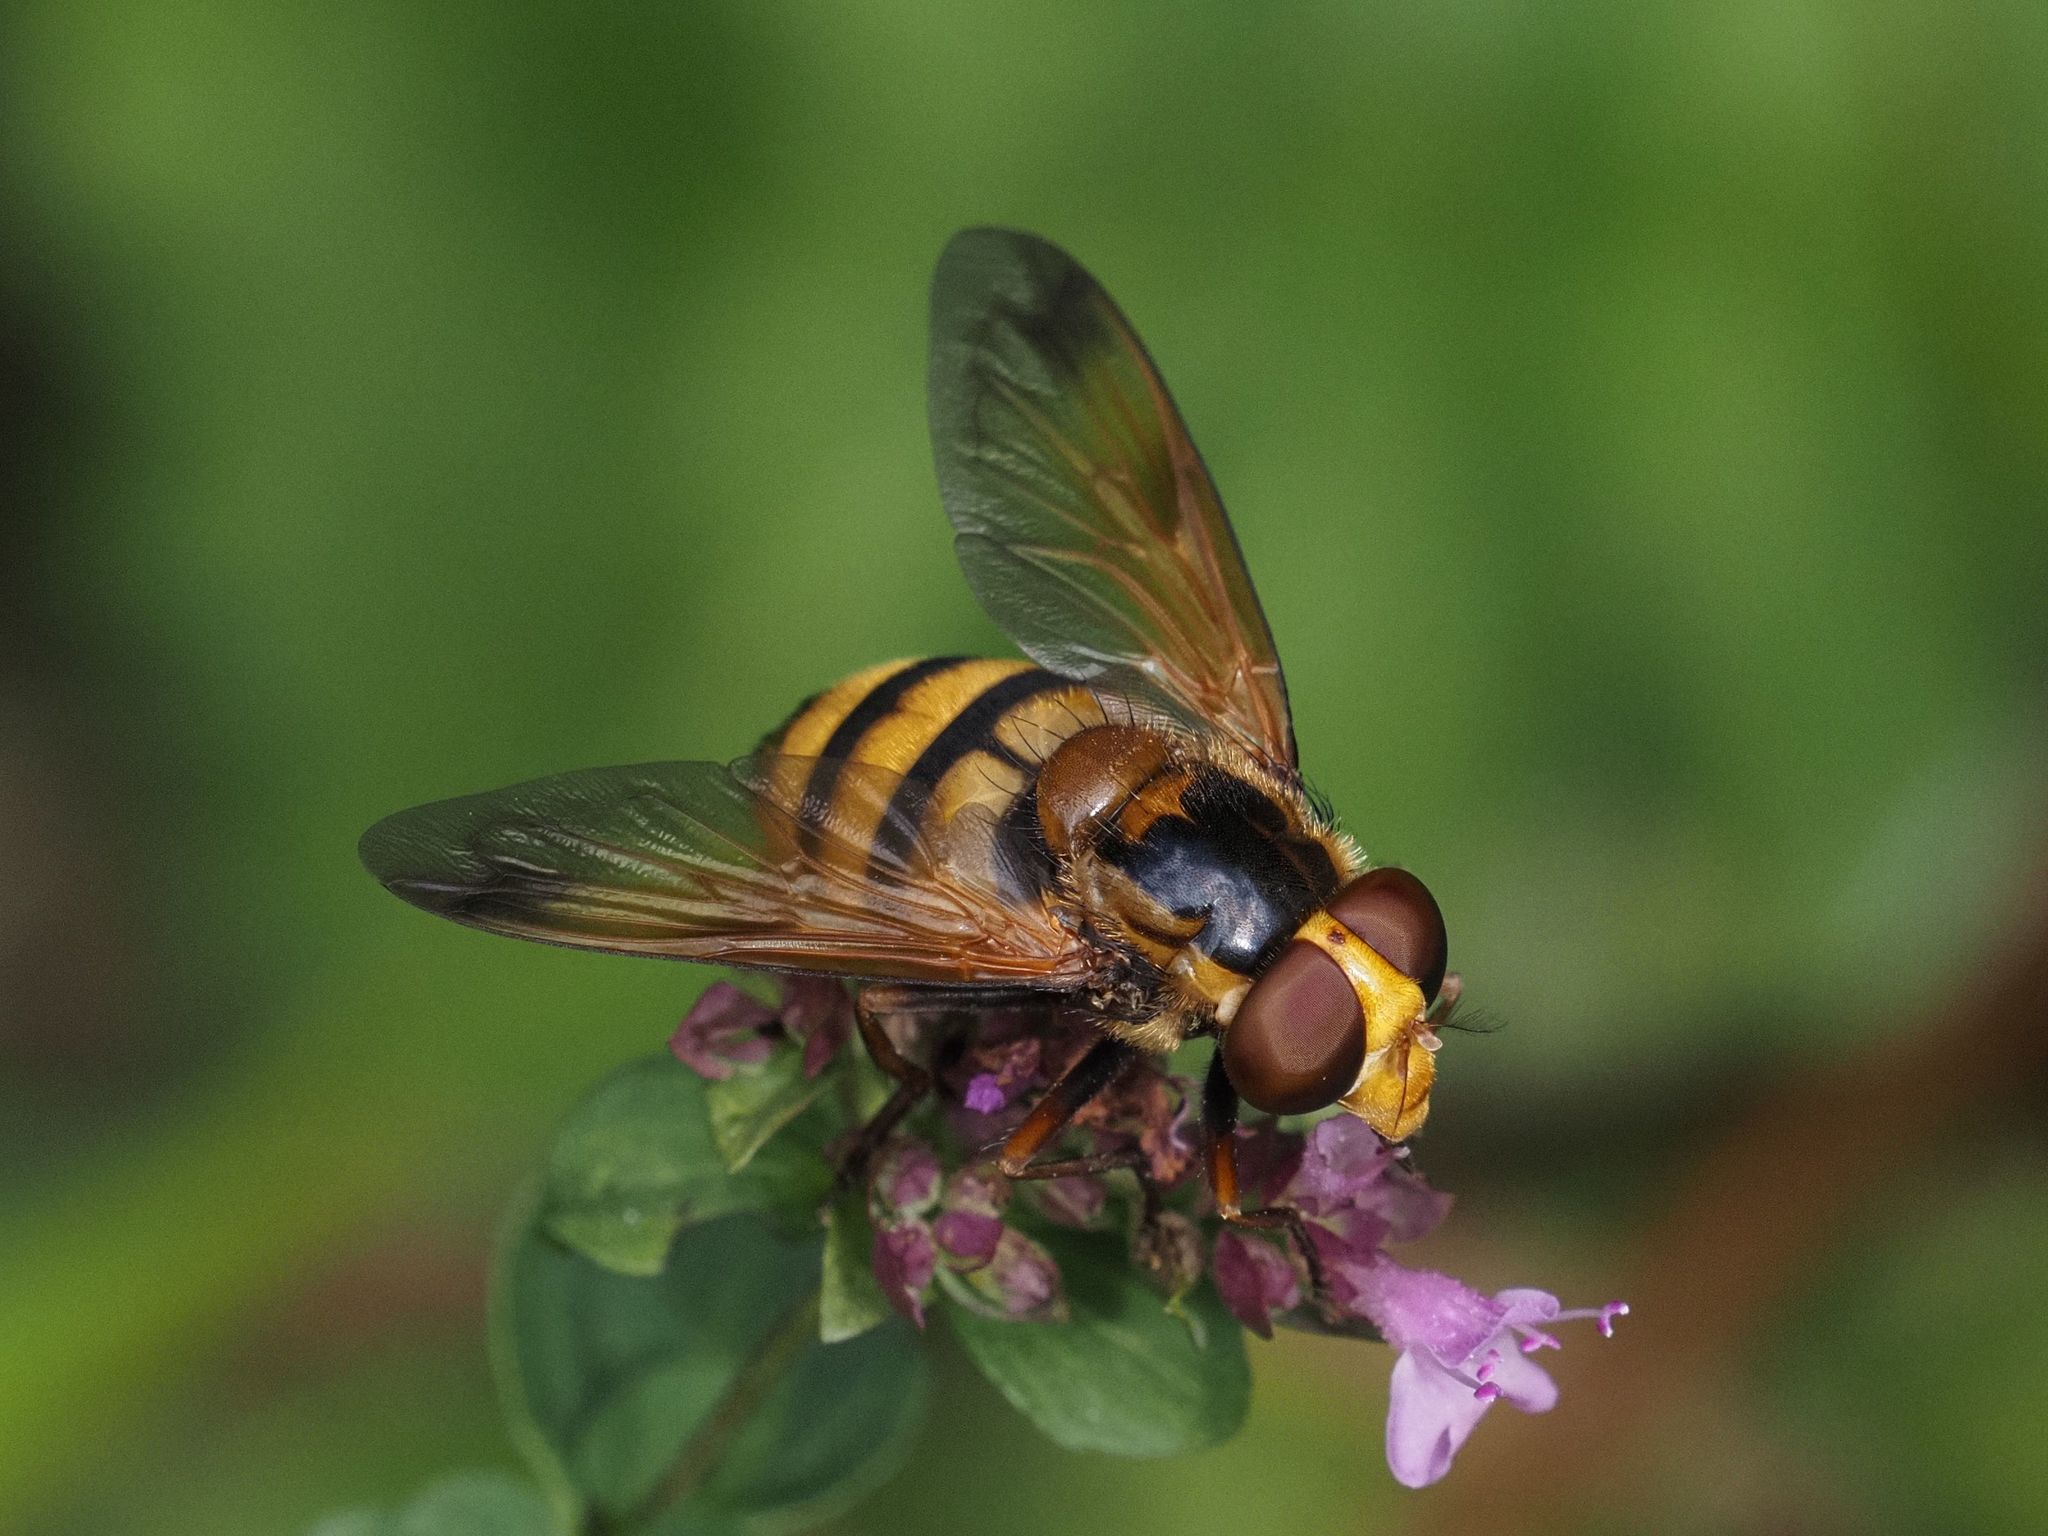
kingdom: Animalia
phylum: Arthropoda
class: Insecta
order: Diptera
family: Syrphidae
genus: Volucella
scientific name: Volucella inanis
